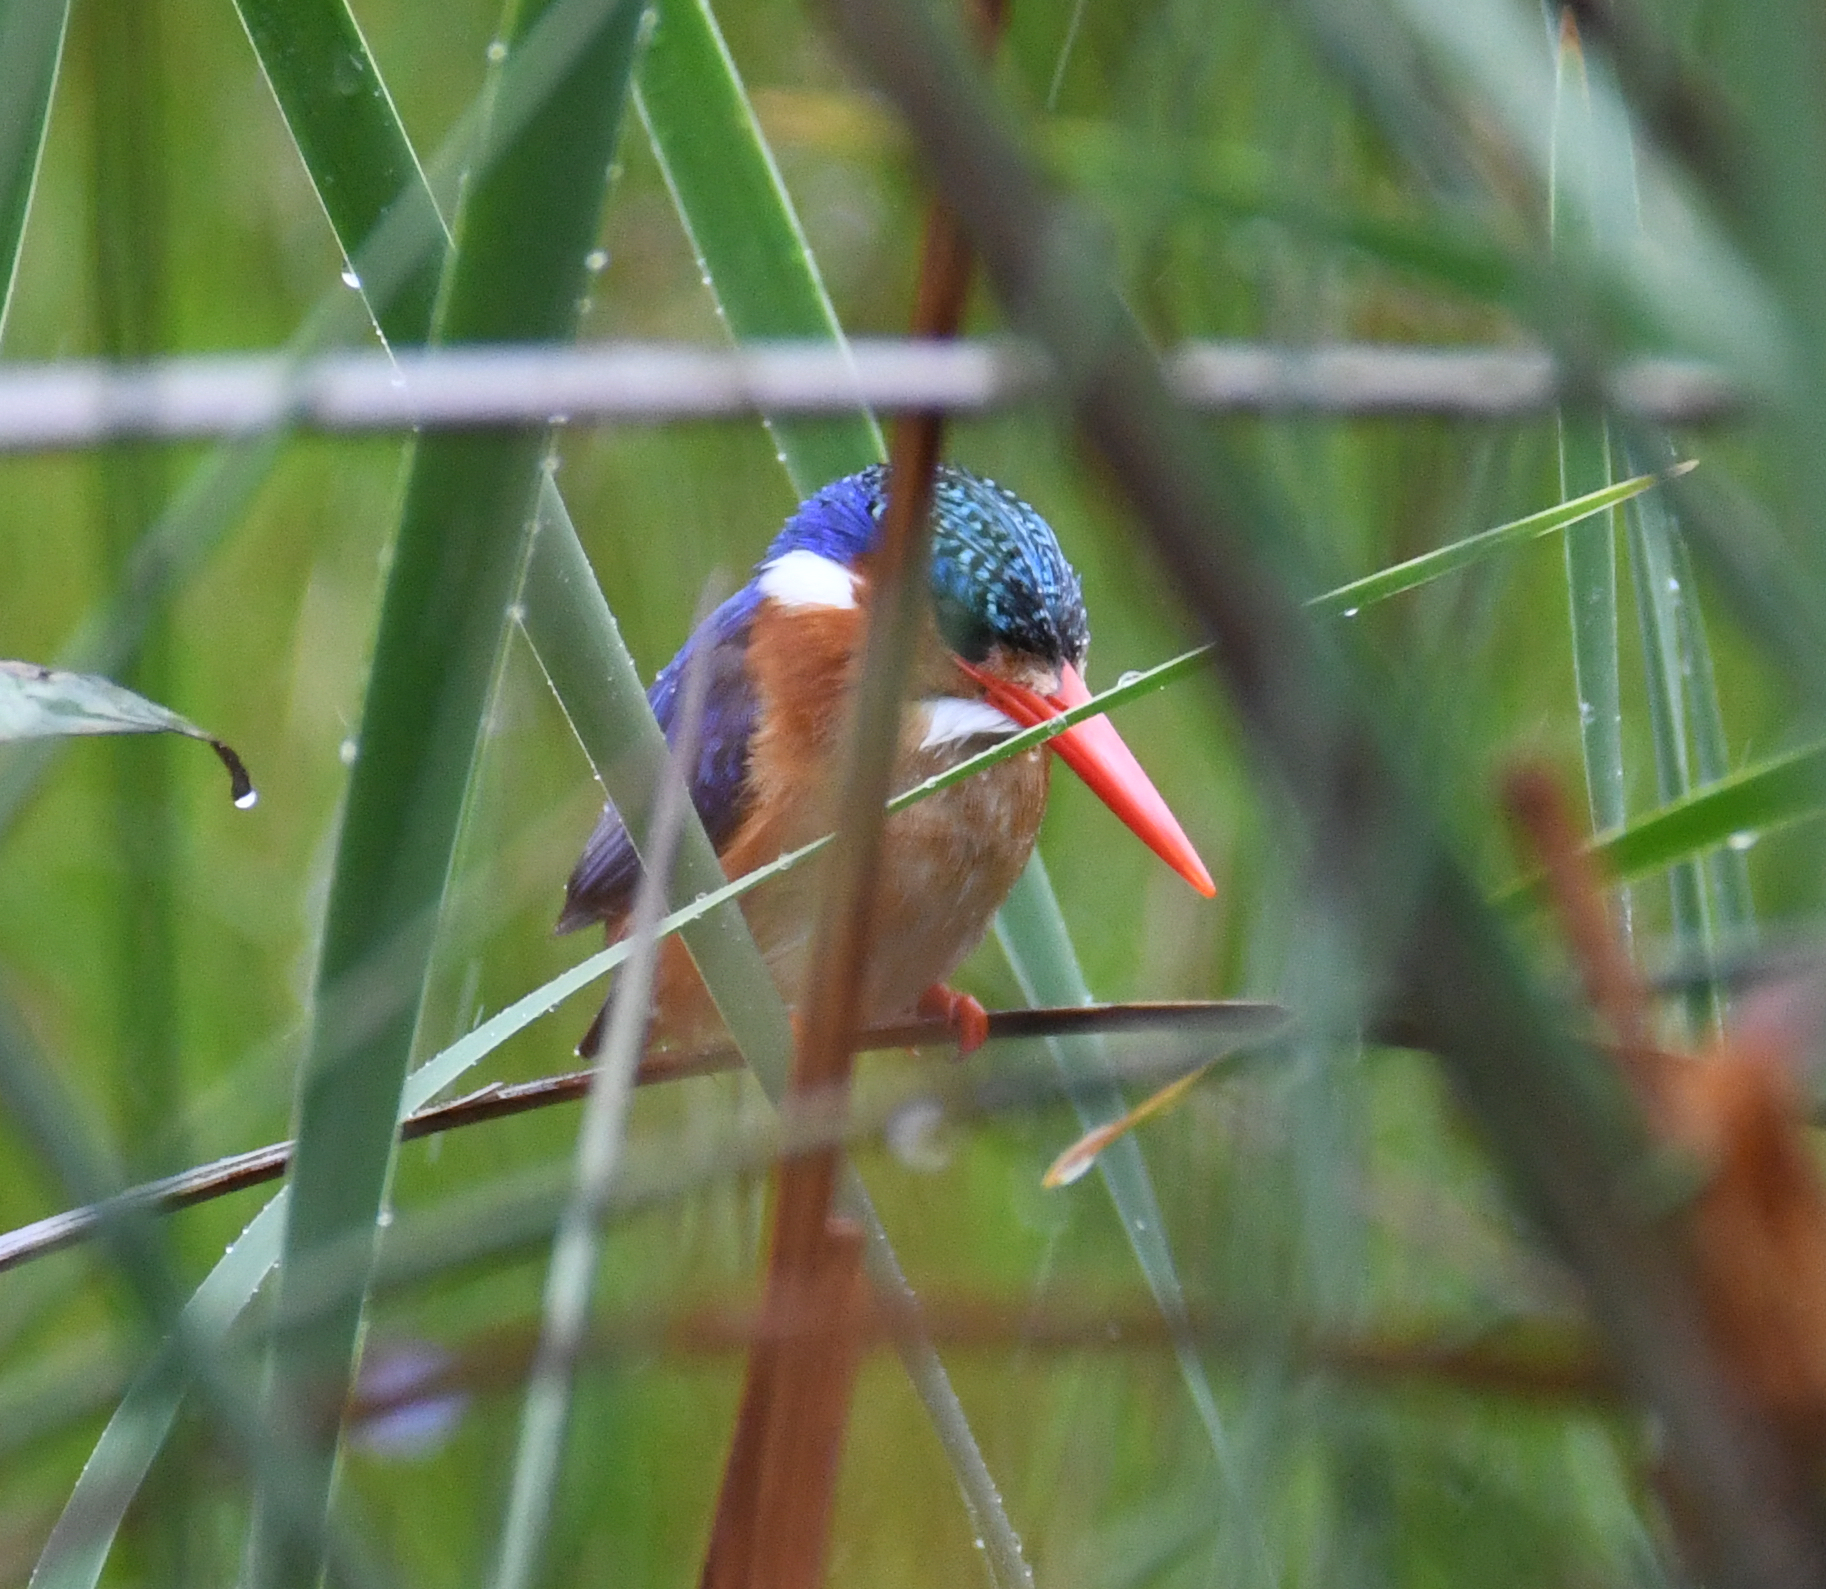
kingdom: Animalia
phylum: Chordata
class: Aves
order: Coraciiformes
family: Alcedinidae
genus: Corythornis
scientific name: Corythornis cristatus
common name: Malachite kingfisher
